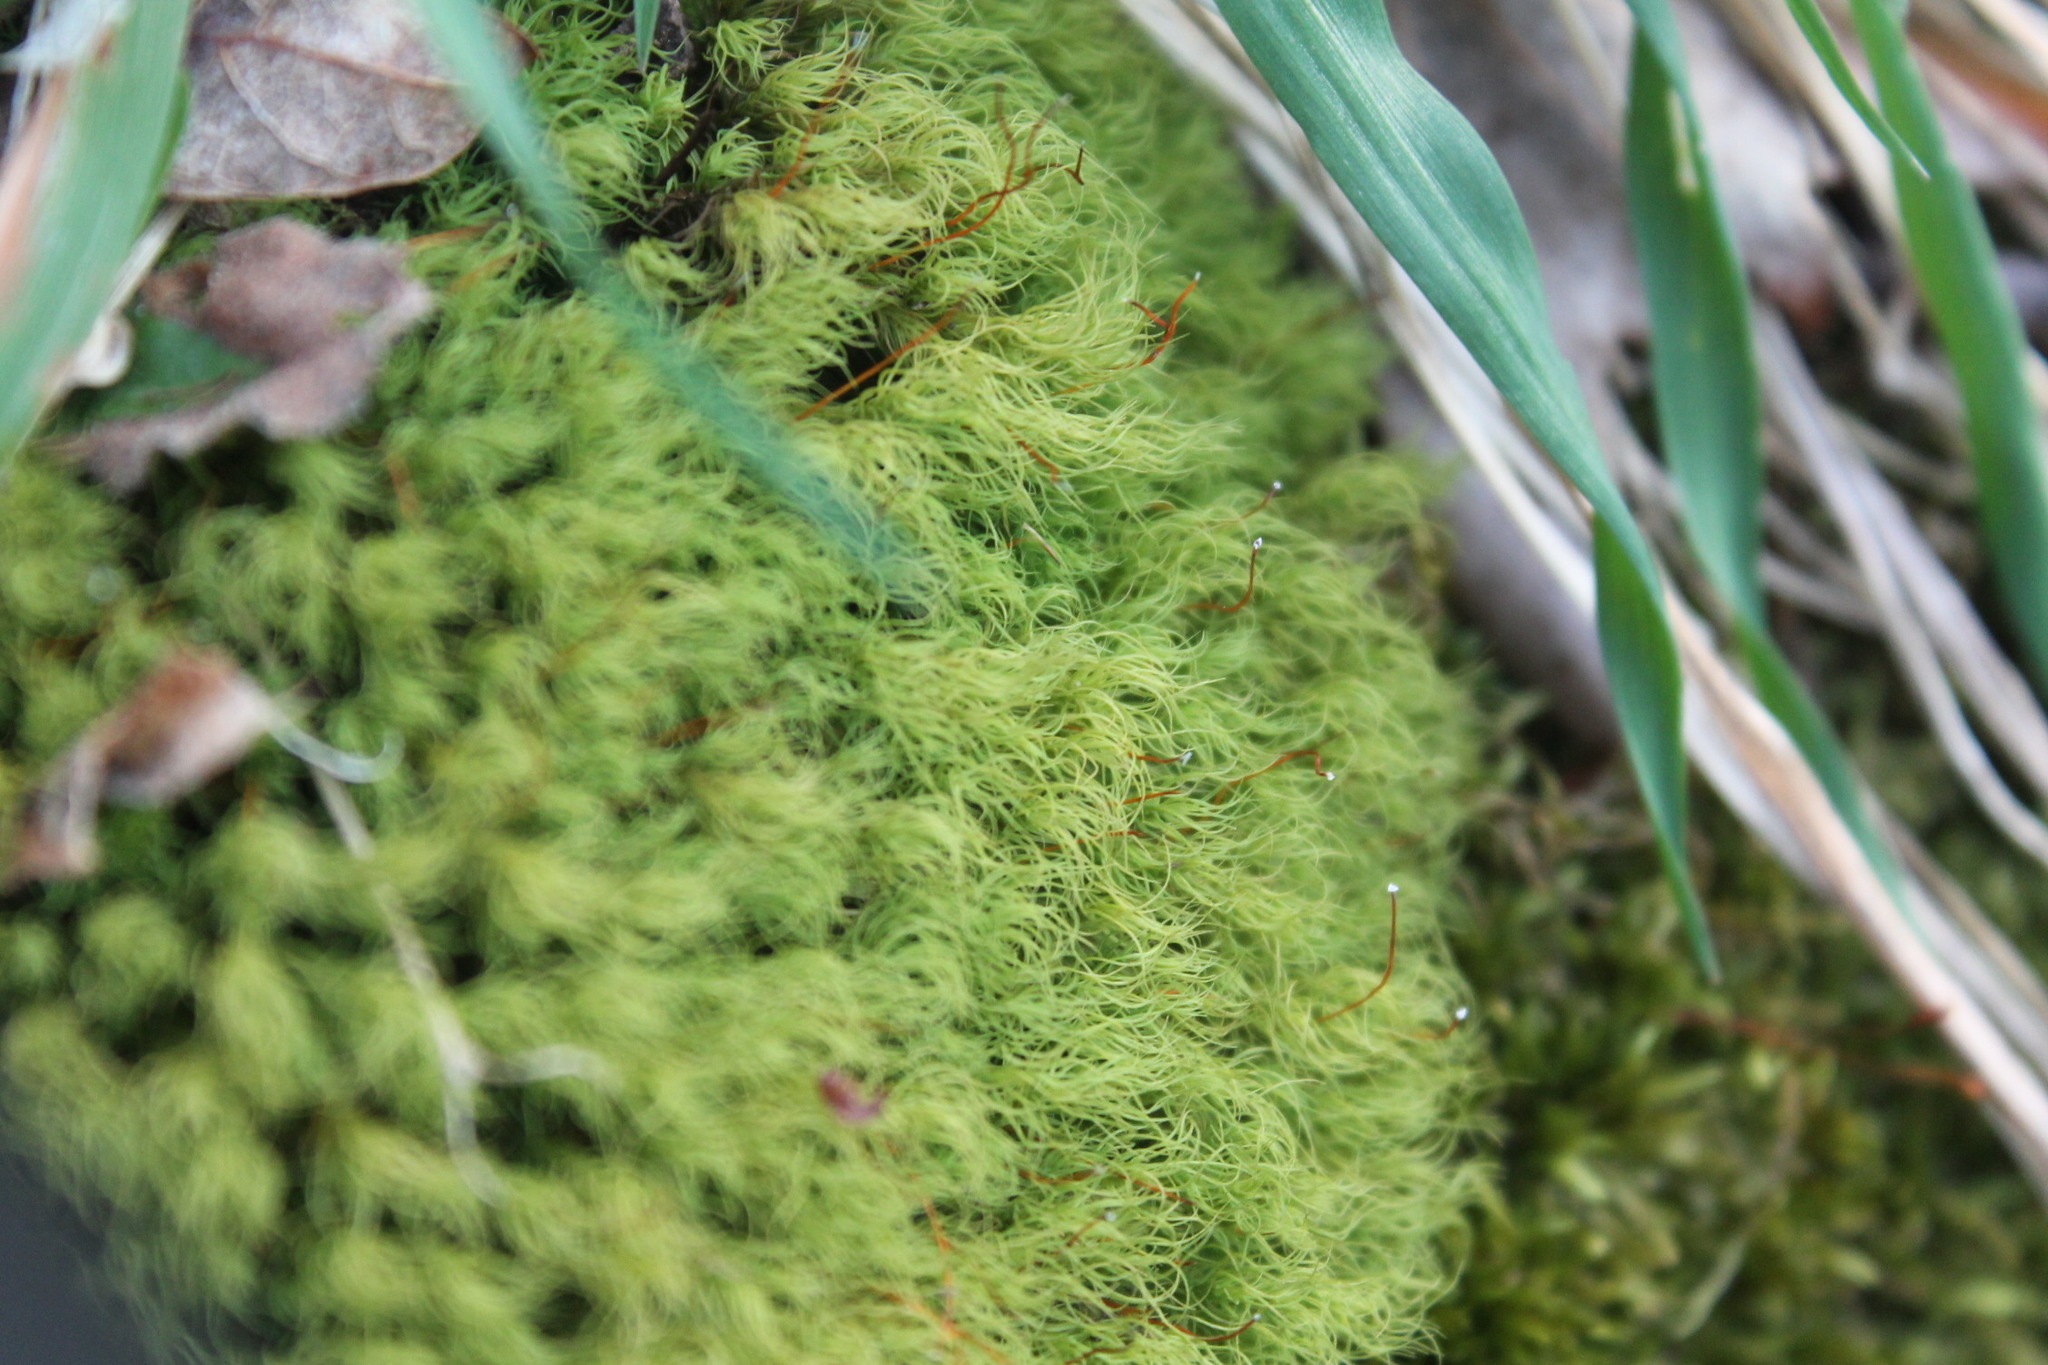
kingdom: Plantae
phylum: Bryophyta
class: Bryopsida
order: Bartramiales
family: Bartramiaceae
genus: Bartramia
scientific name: Bartramia ithyphylla
